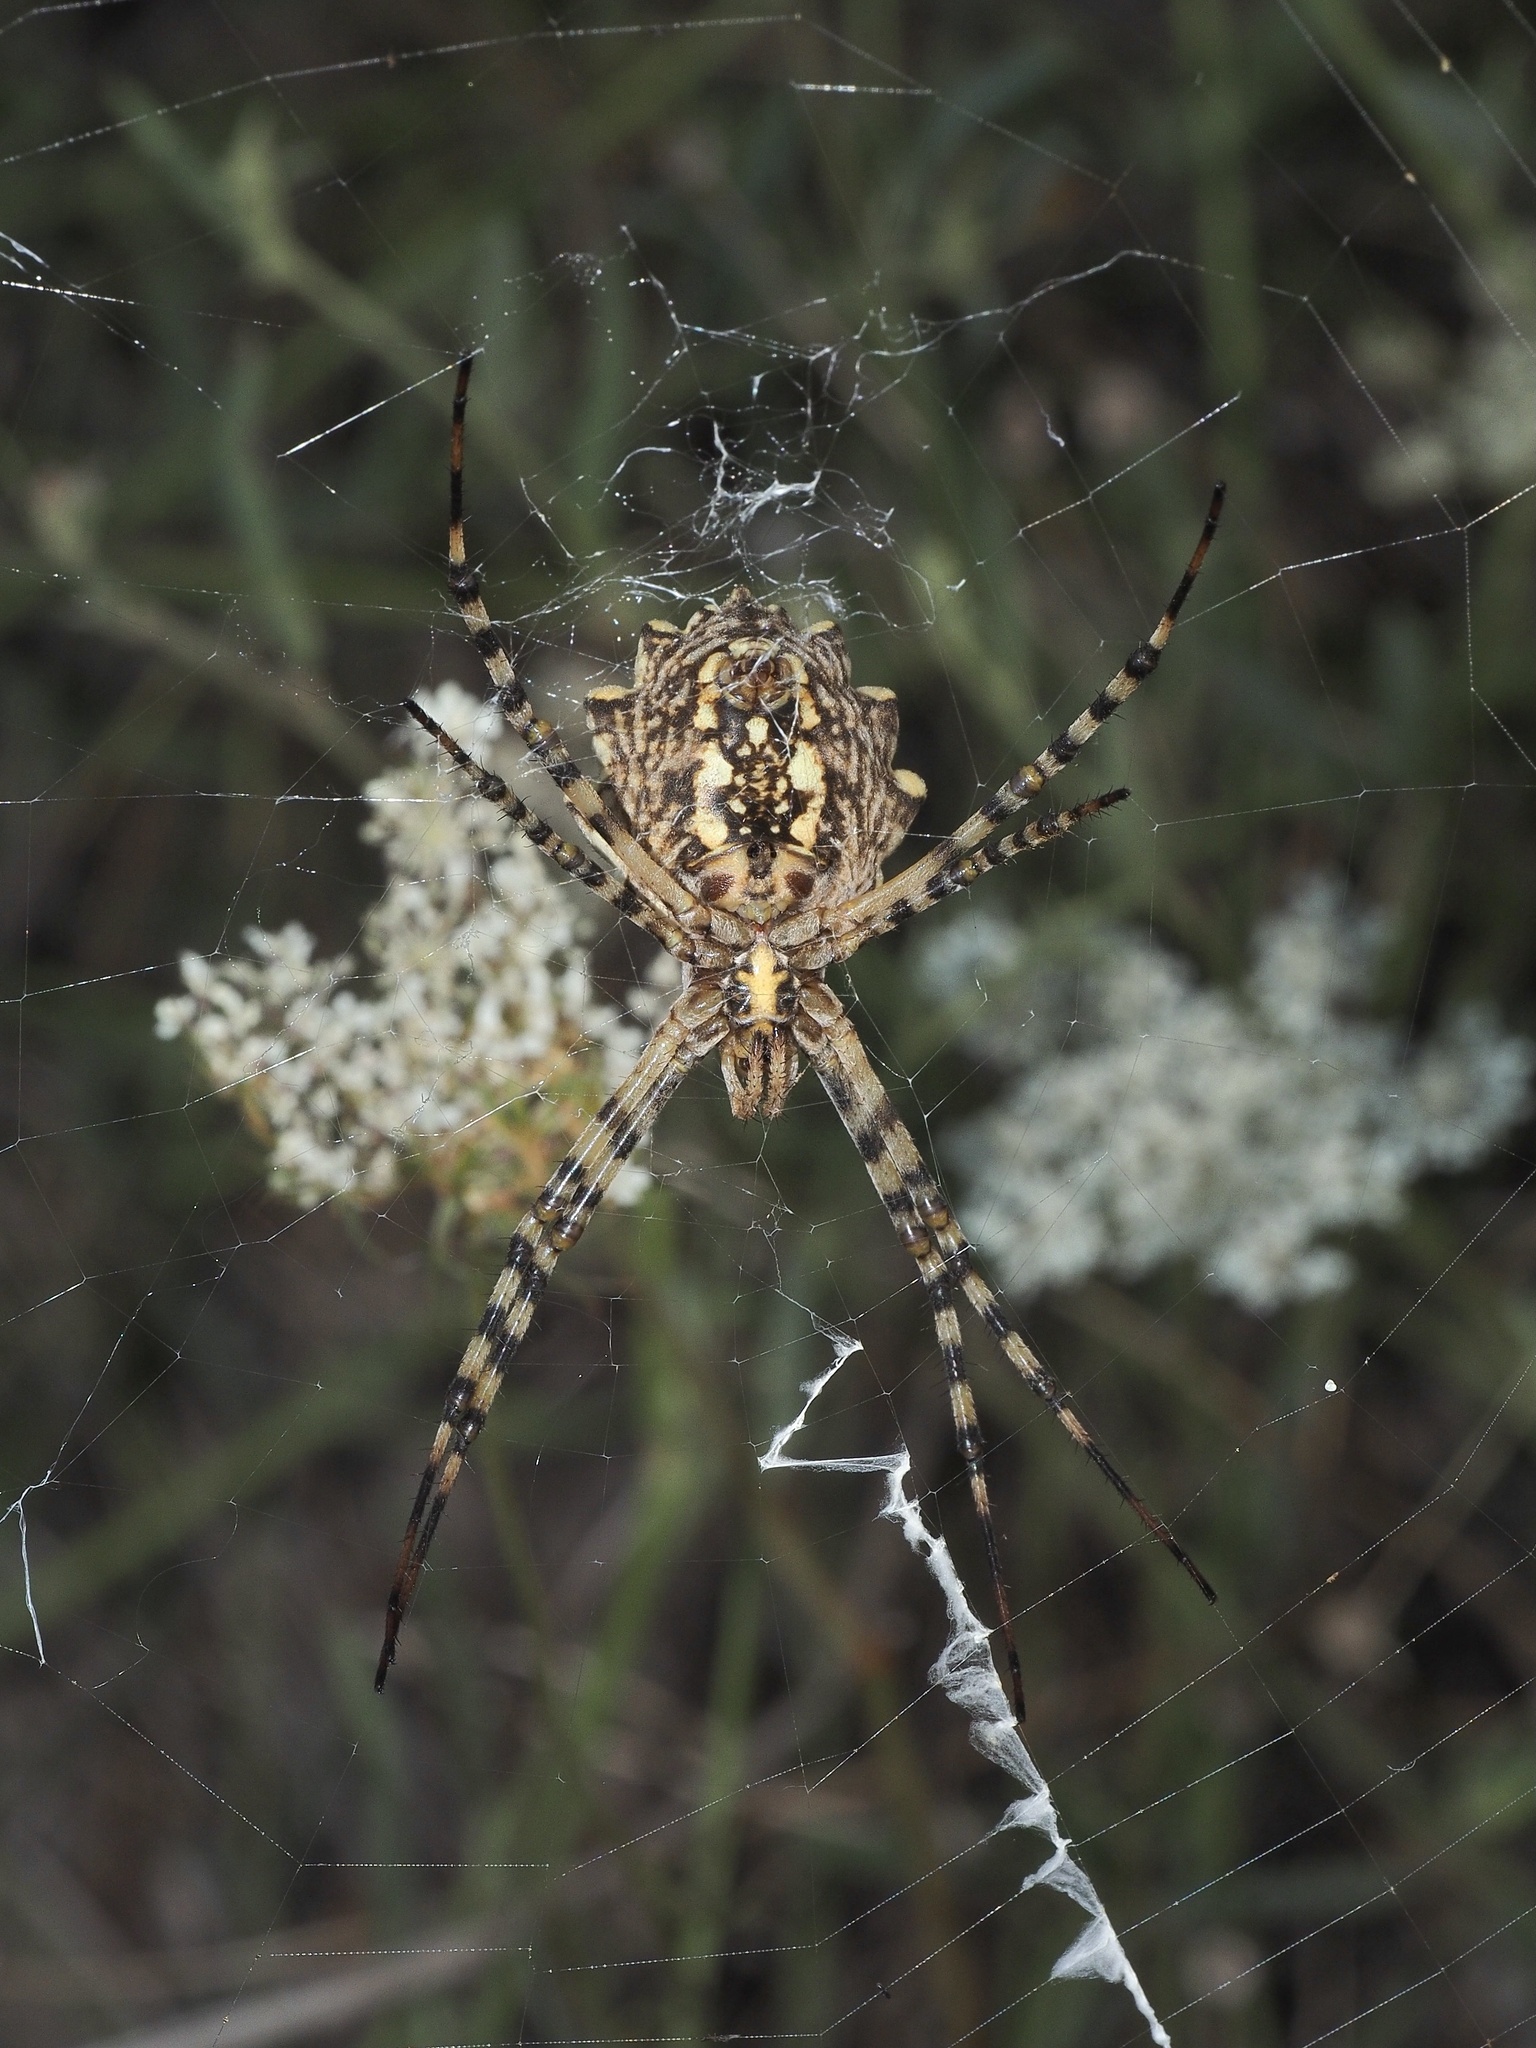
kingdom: Animalia
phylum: Arthropoda
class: Arachnida
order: Araneae
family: Araneidae
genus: Argiope
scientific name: Argiope lobata
